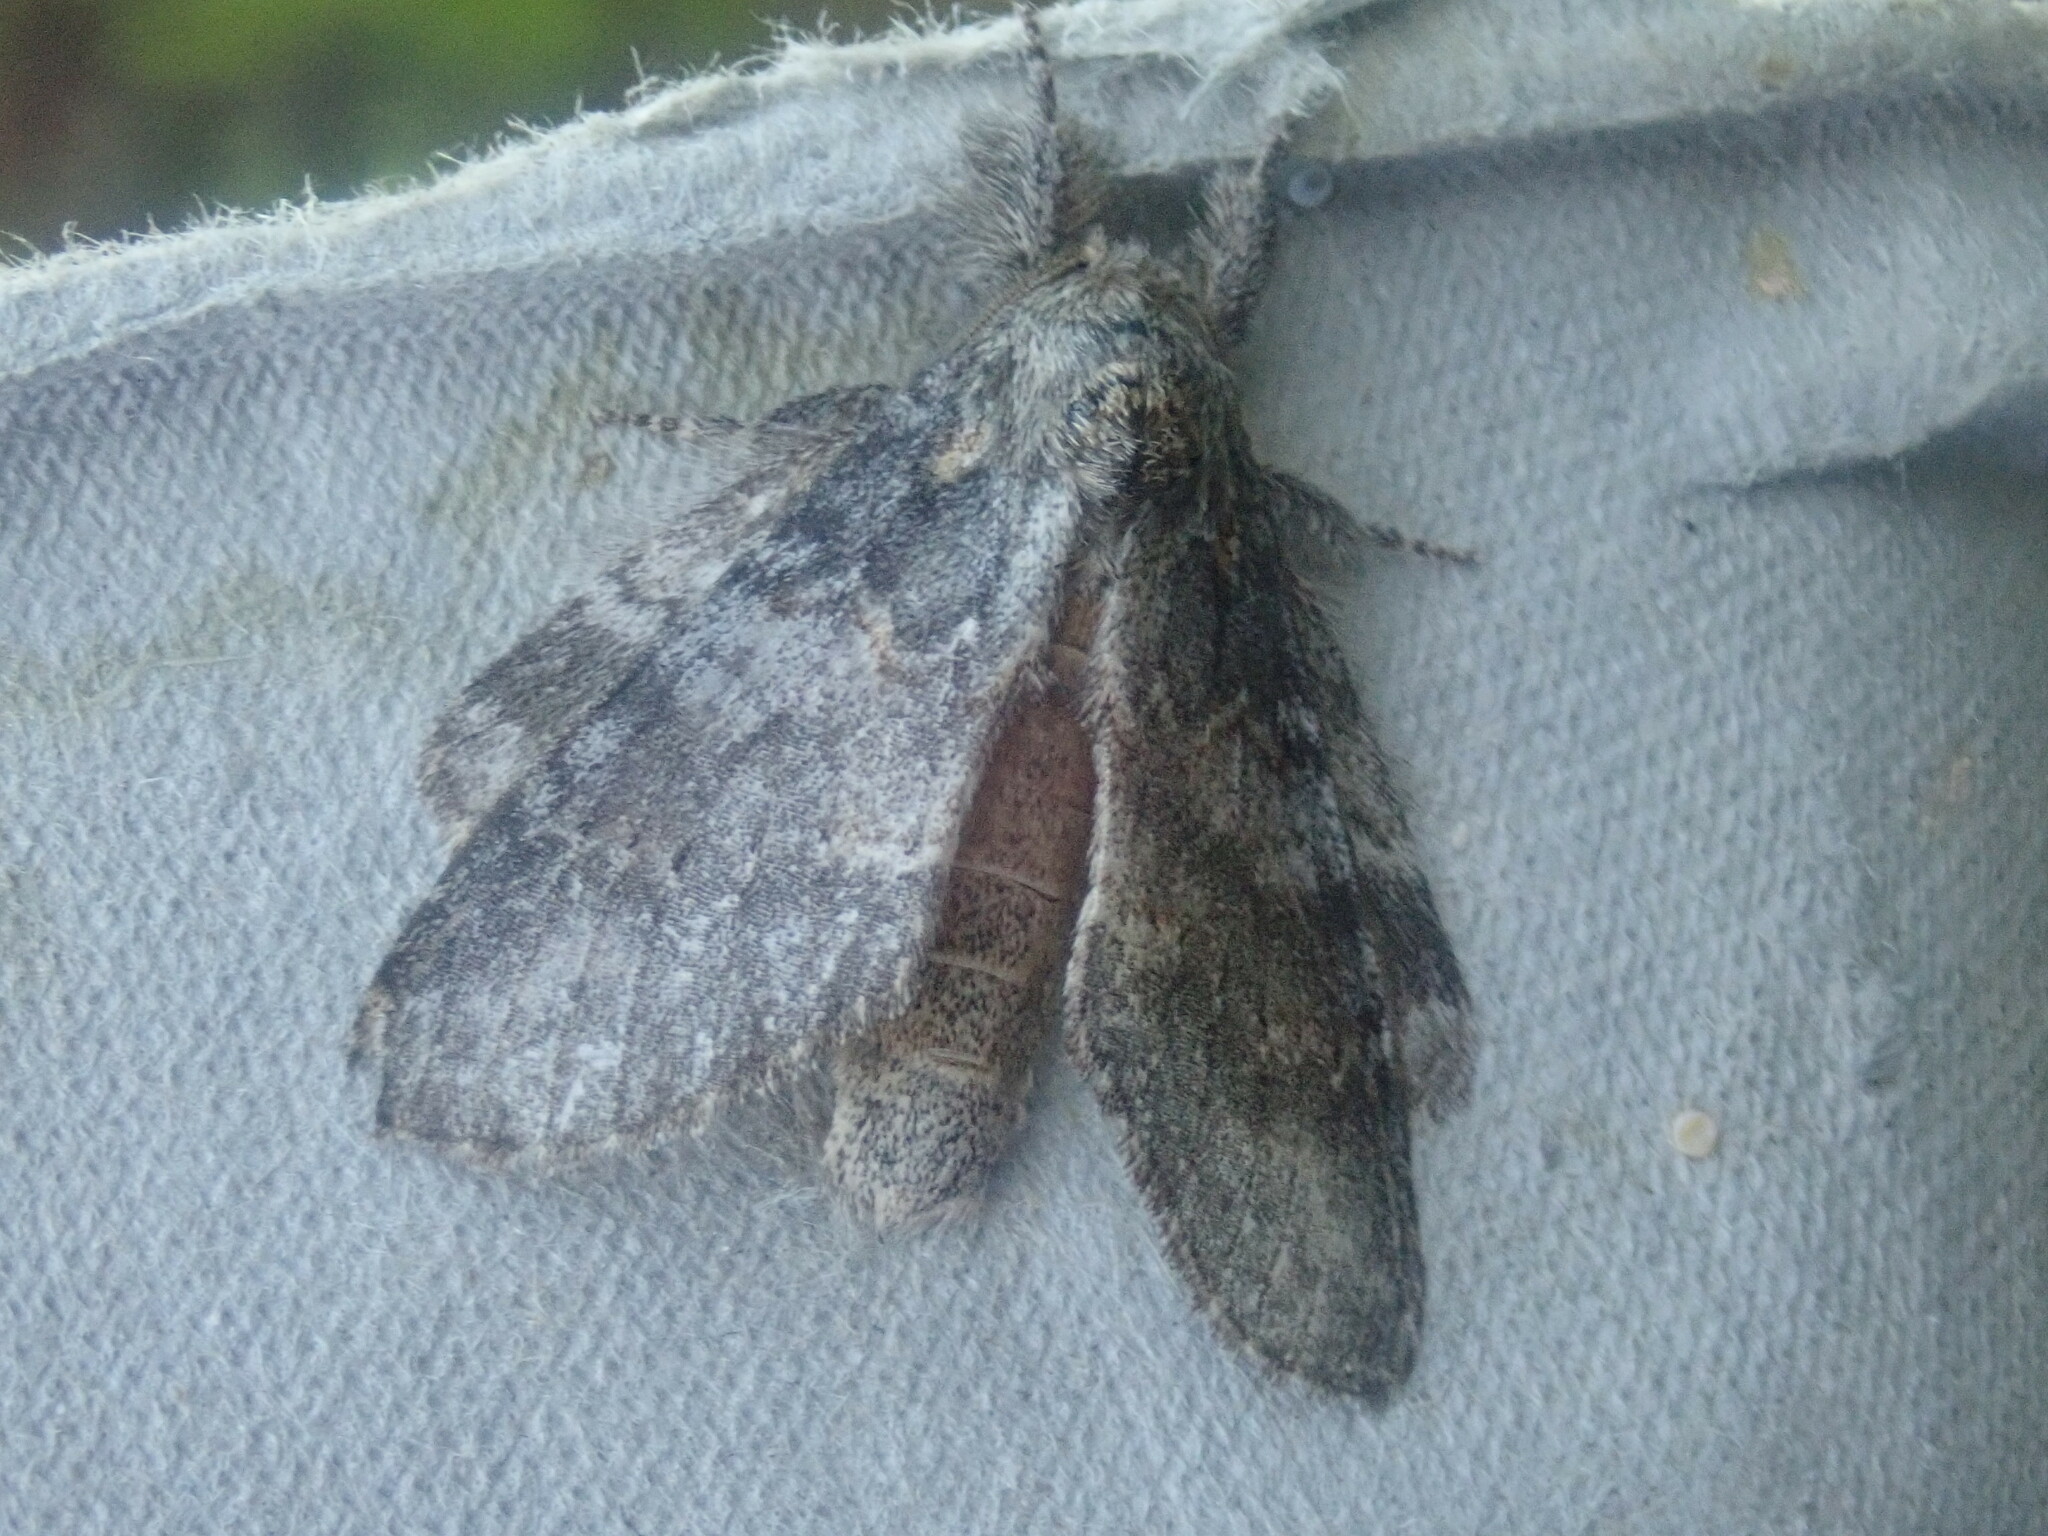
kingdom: Animalia
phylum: Arthropoda
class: Insecta
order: Lepidoptera
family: Notodontidae
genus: Peridea
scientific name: Peridea angulosa
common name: Angulose prominent
